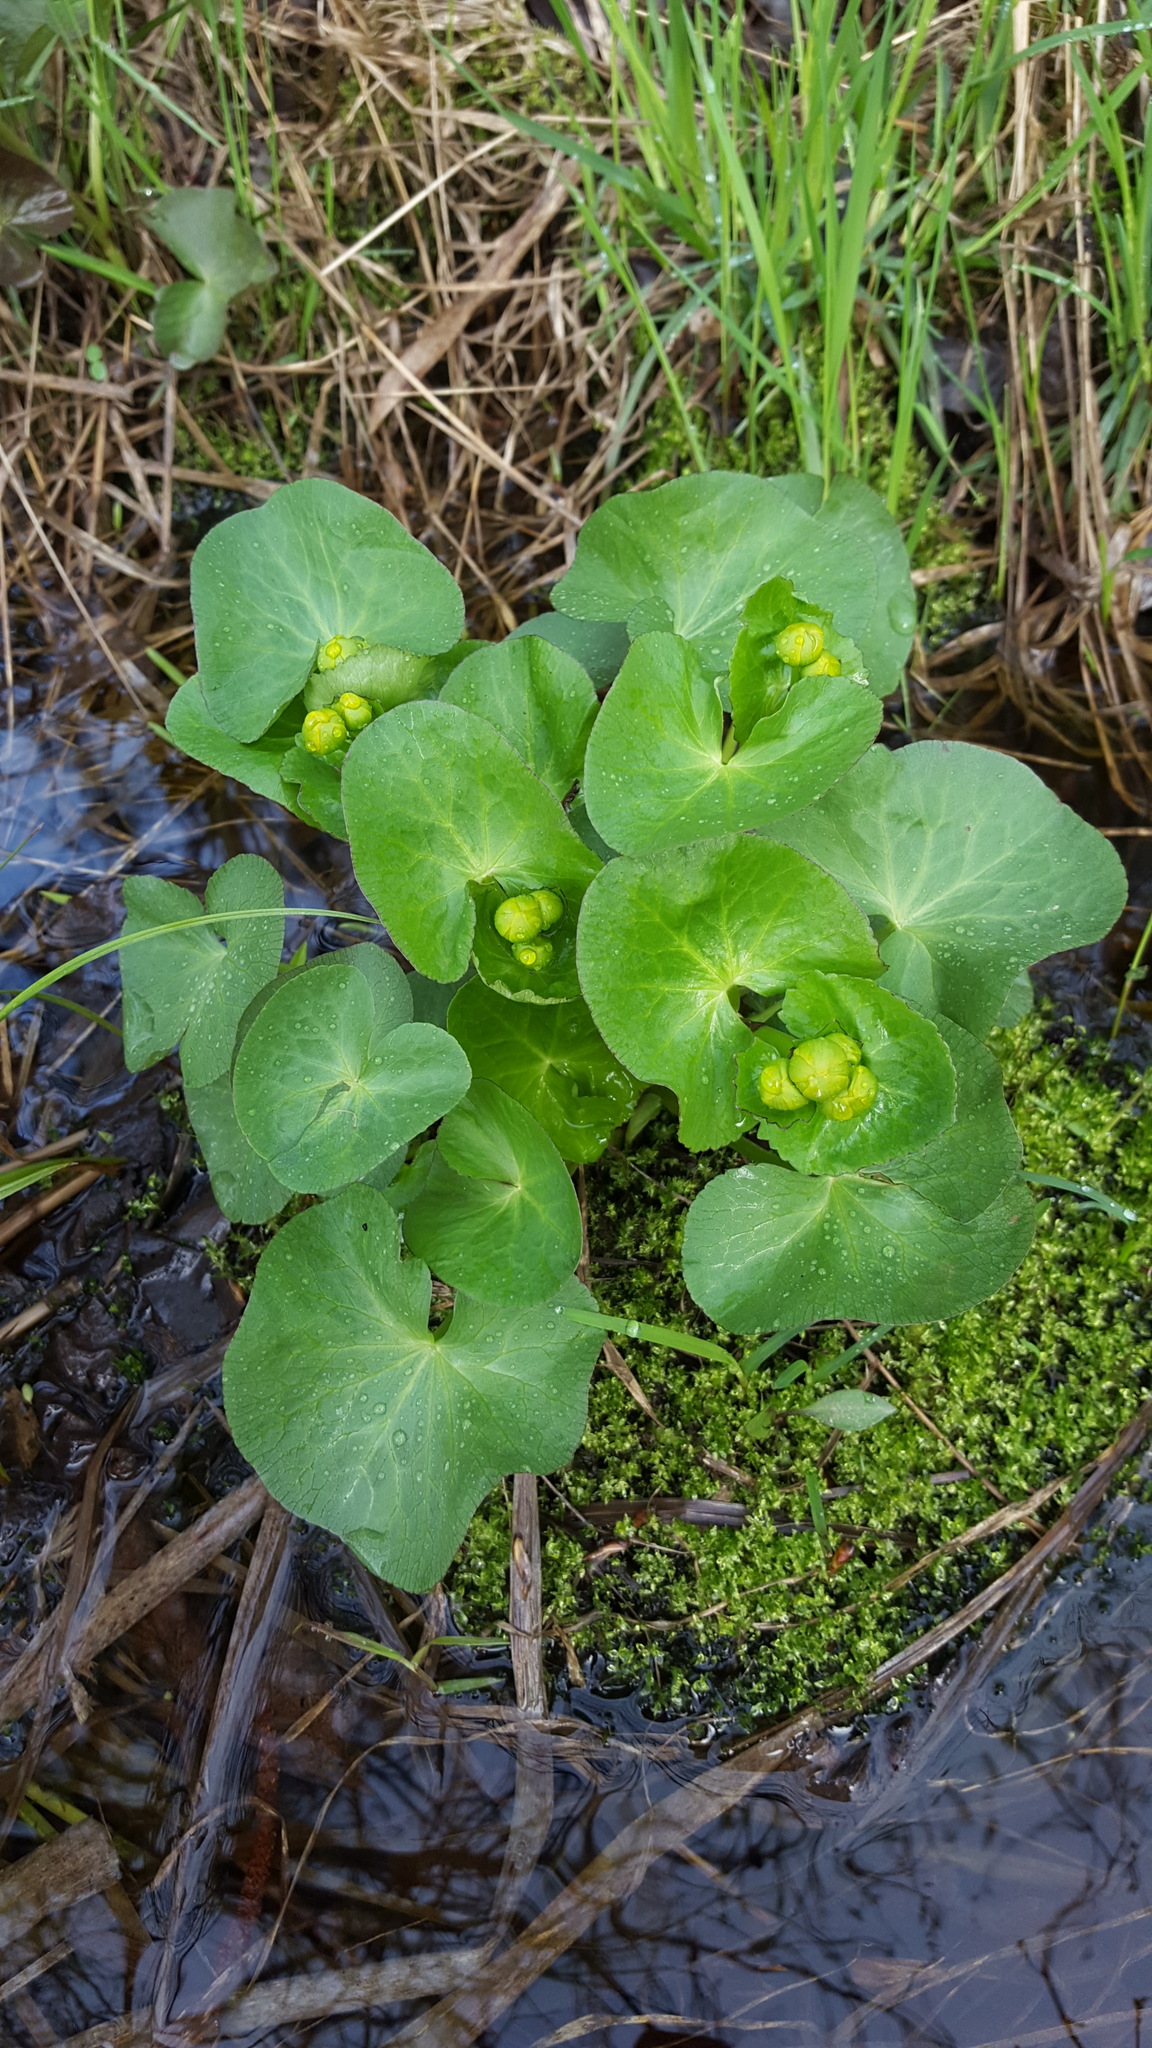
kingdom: Plantae
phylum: Tracheophyta
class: Magnoliopsida
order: Ranunculales
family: Ranunculaceae
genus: Caltha
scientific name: Caltha palustris
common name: Marsh marigold
